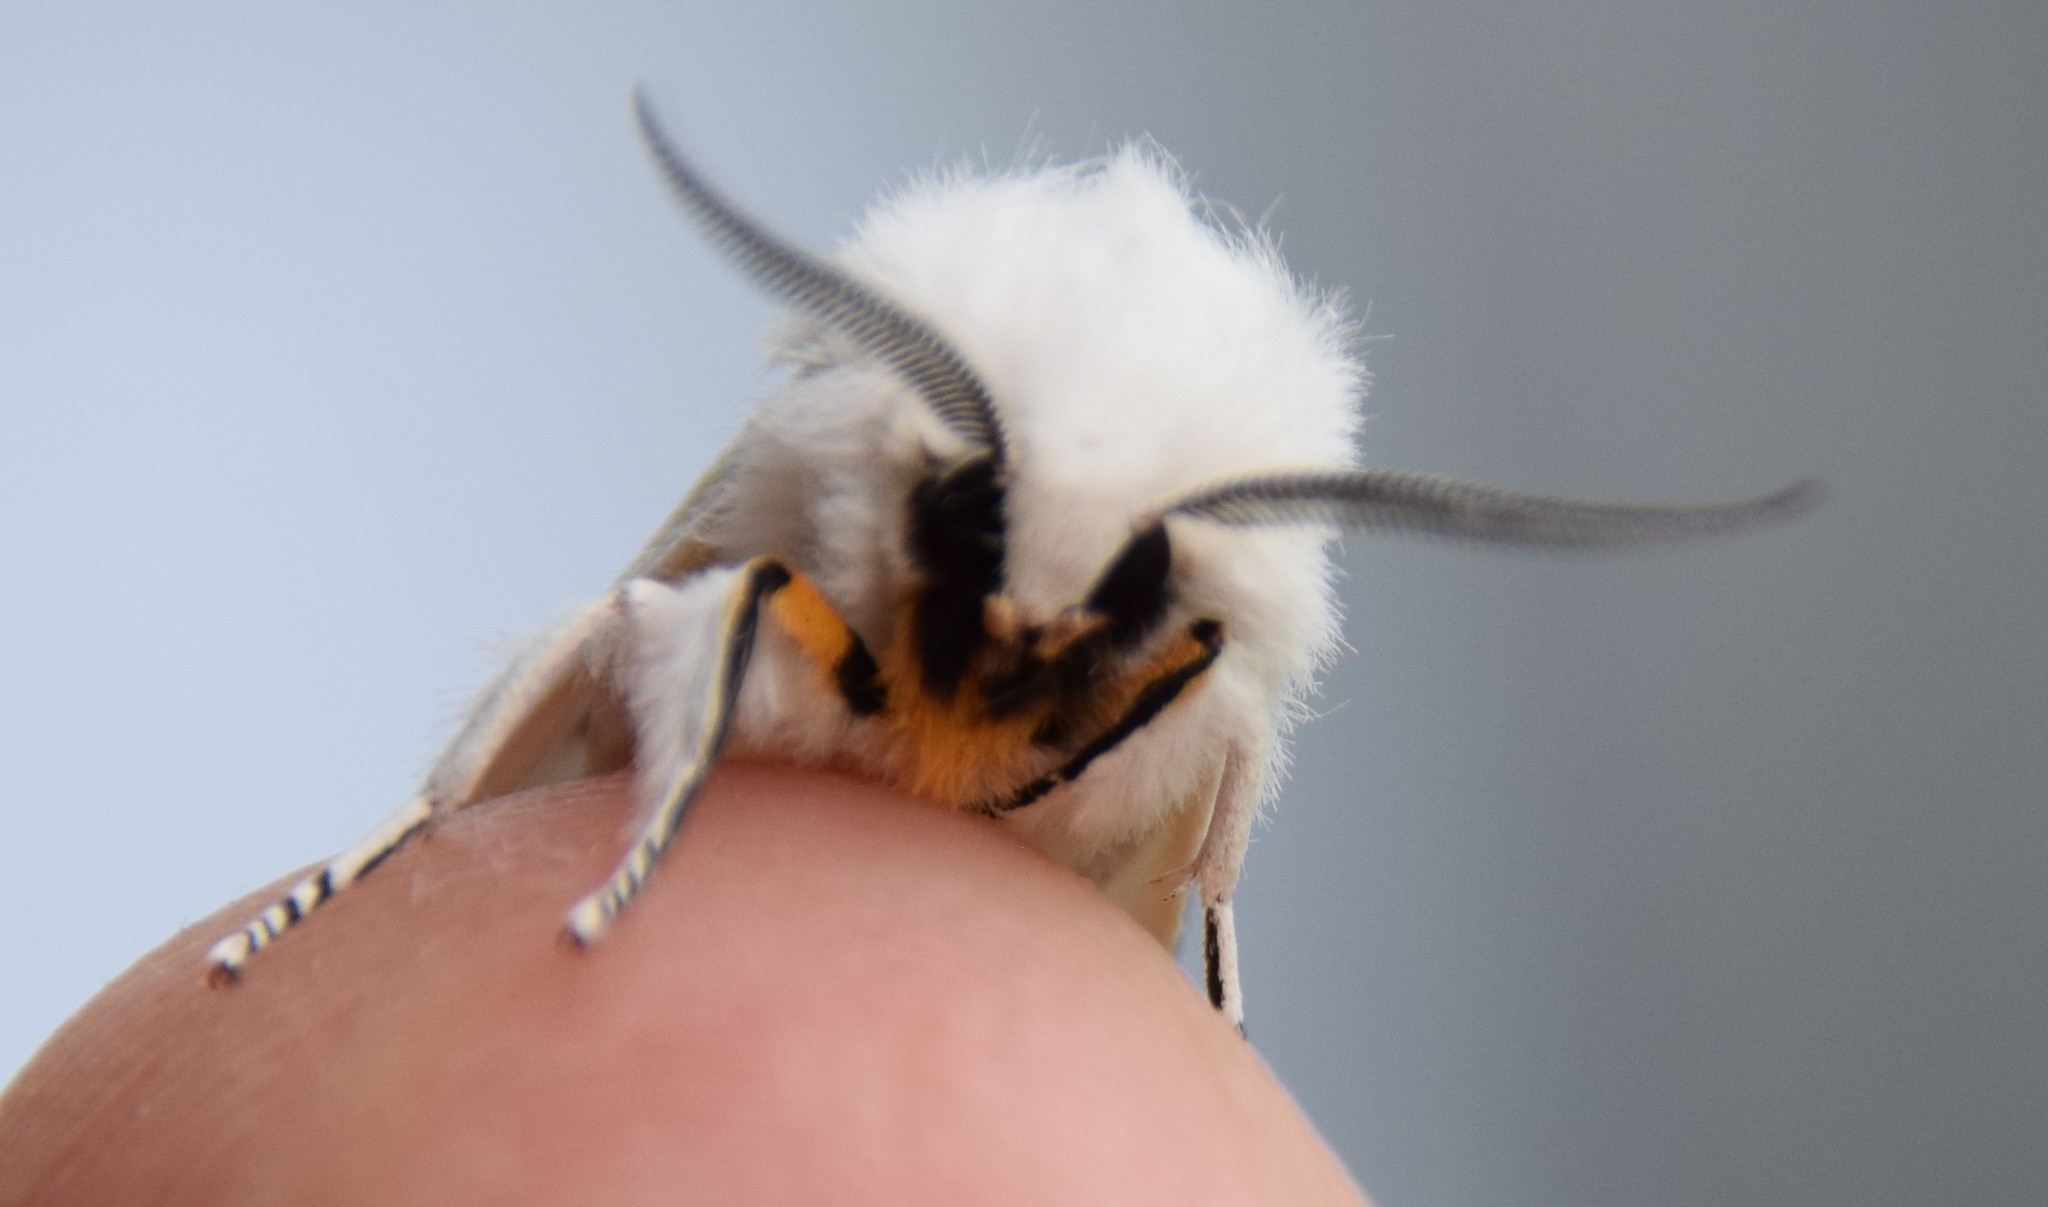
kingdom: Animalia
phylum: Arthropoda
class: Insecta
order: Lepidoptera
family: Erebidae
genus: Spilosoma
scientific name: Spilosoma virginica
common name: Virginia tiger moth
